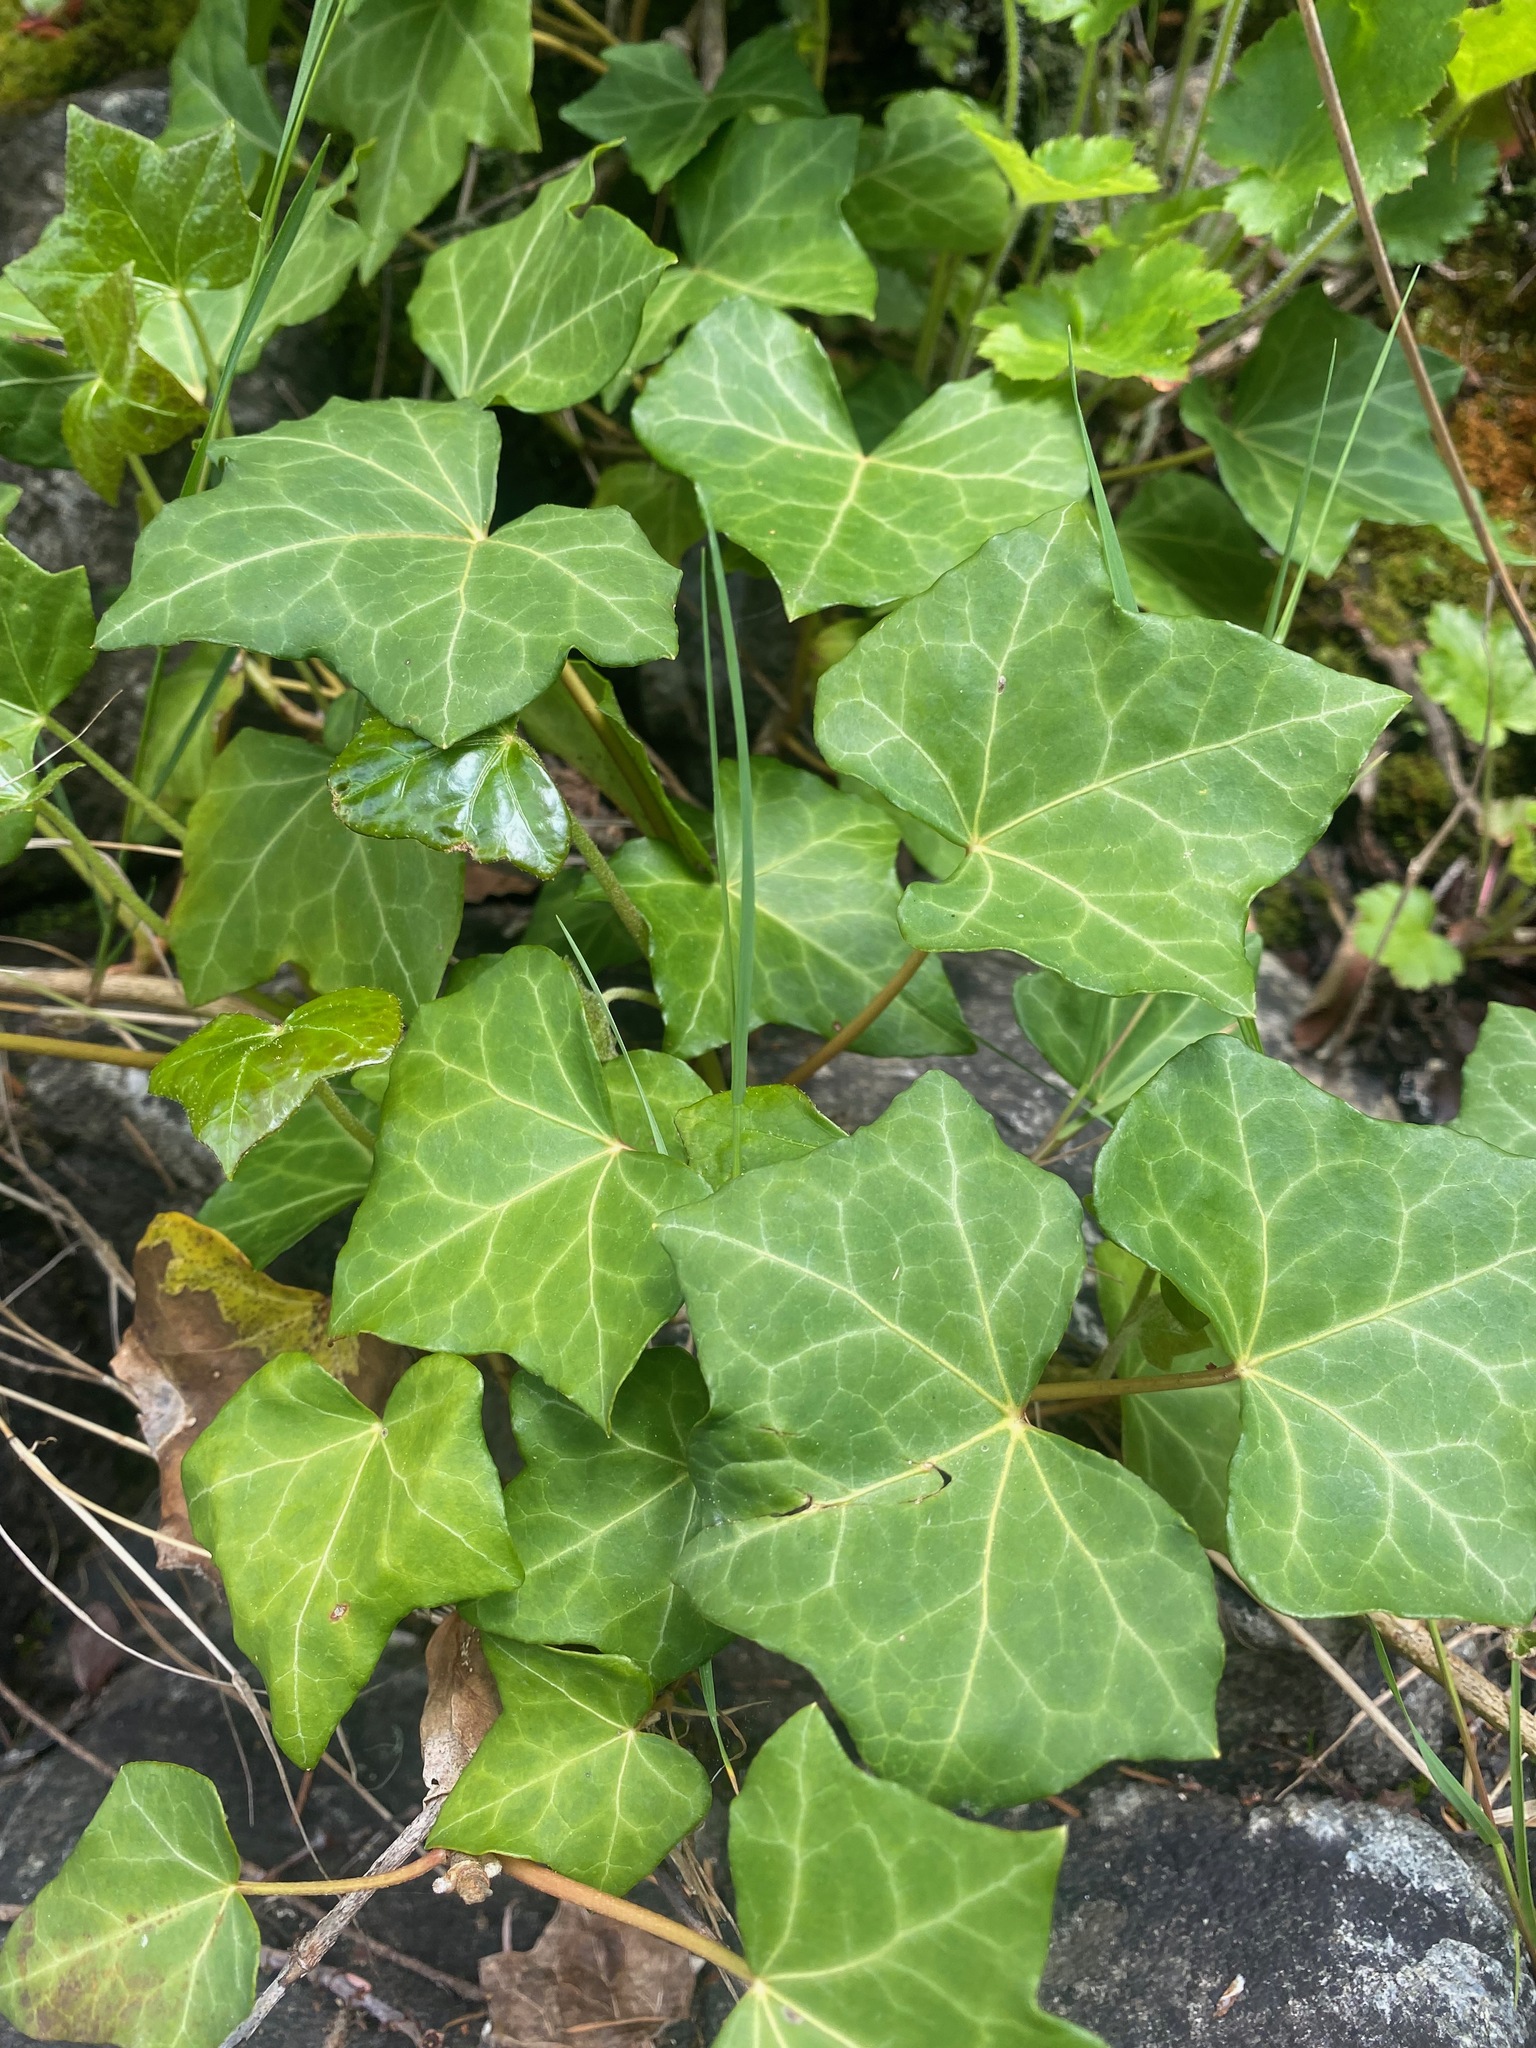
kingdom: Plantae
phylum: Tracheophyta
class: Magnoliopsida
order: Apiales
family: Araliaceae
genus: Hedera
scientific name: Hedera helix
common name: Ivy
